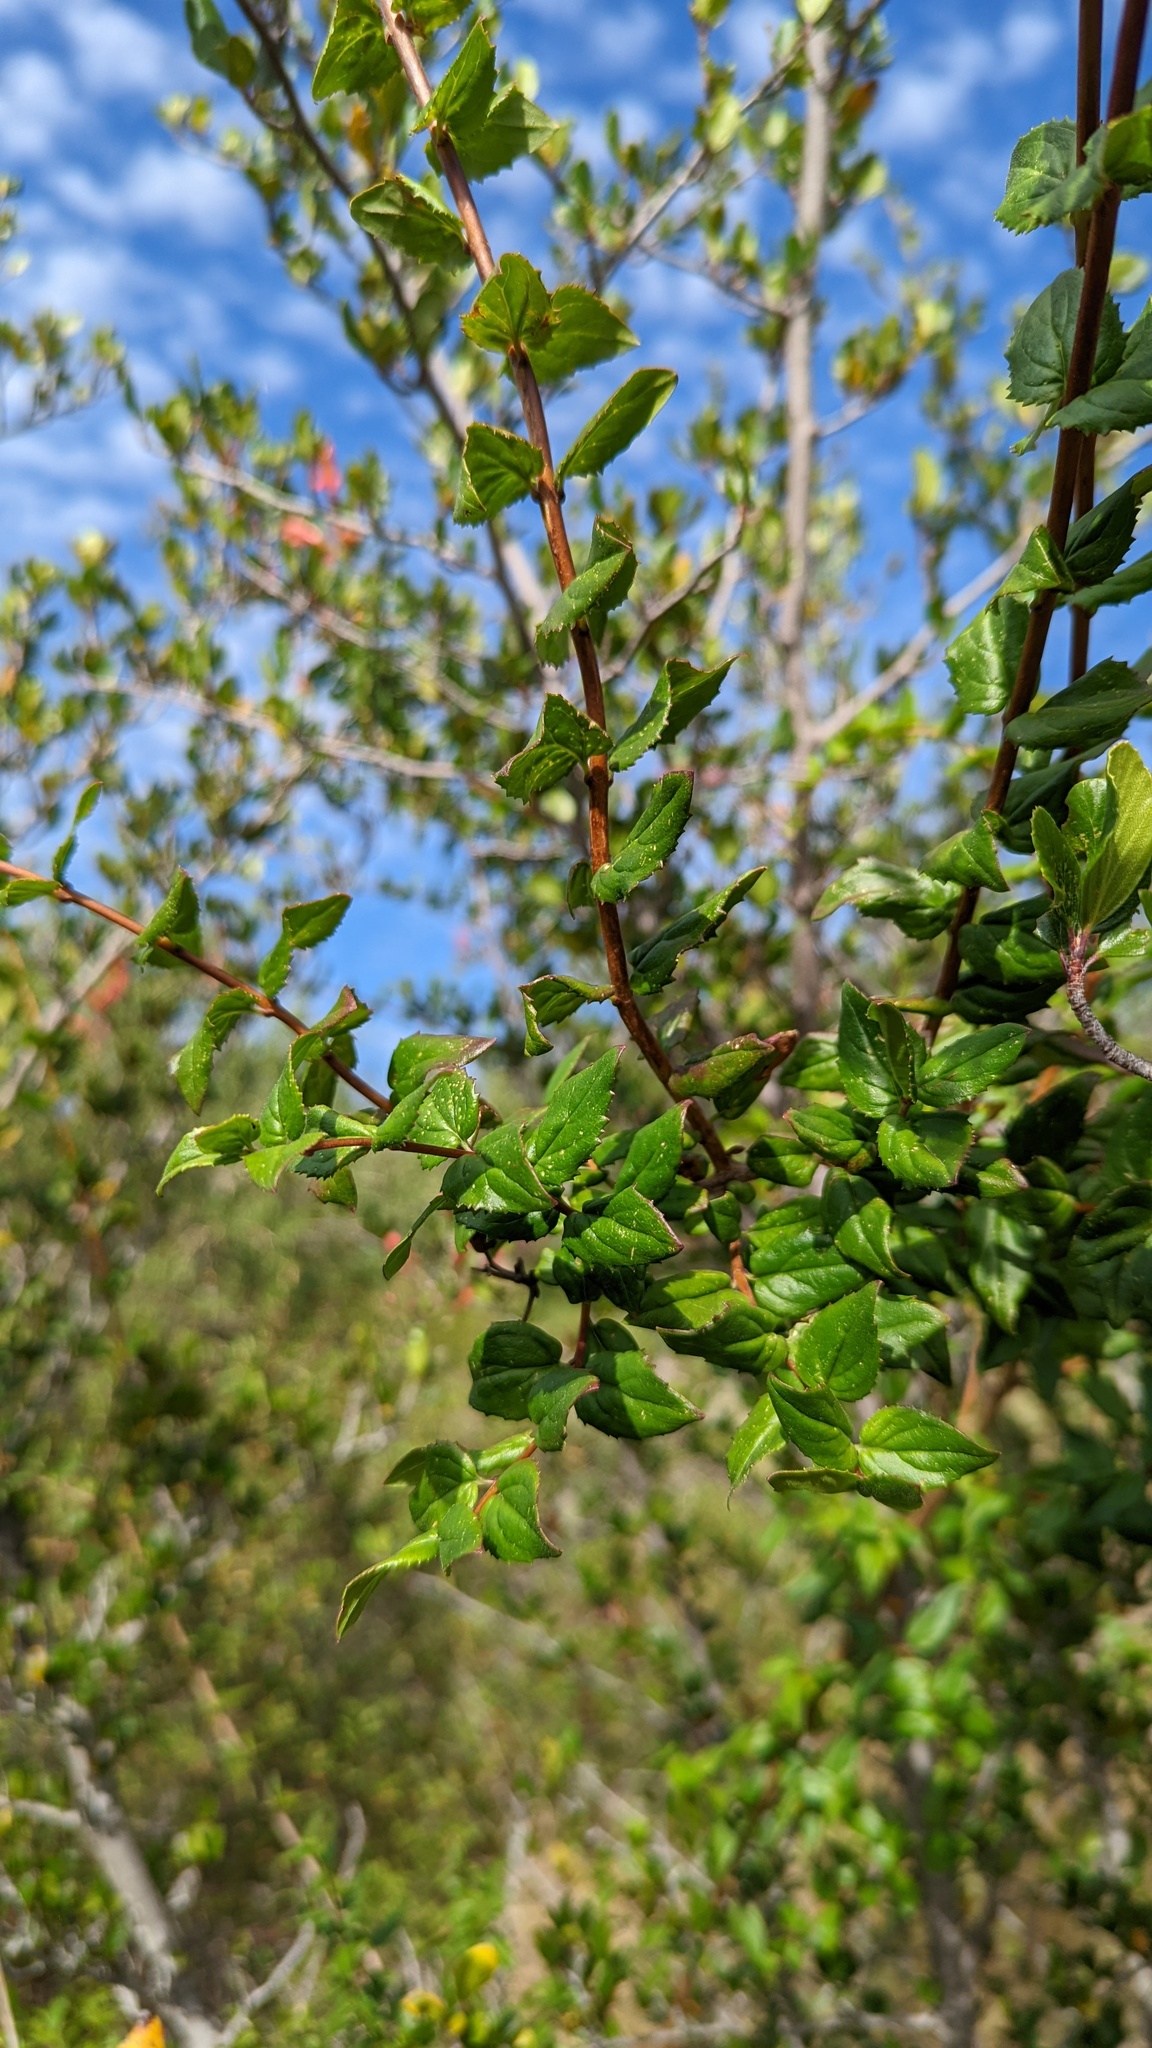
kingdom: Plantae
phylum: Tracheophyta
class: Magnoliopsida
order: Lamiales
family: Plantaginaceae
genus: Keckiella
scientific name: Keckiella cordifolia
